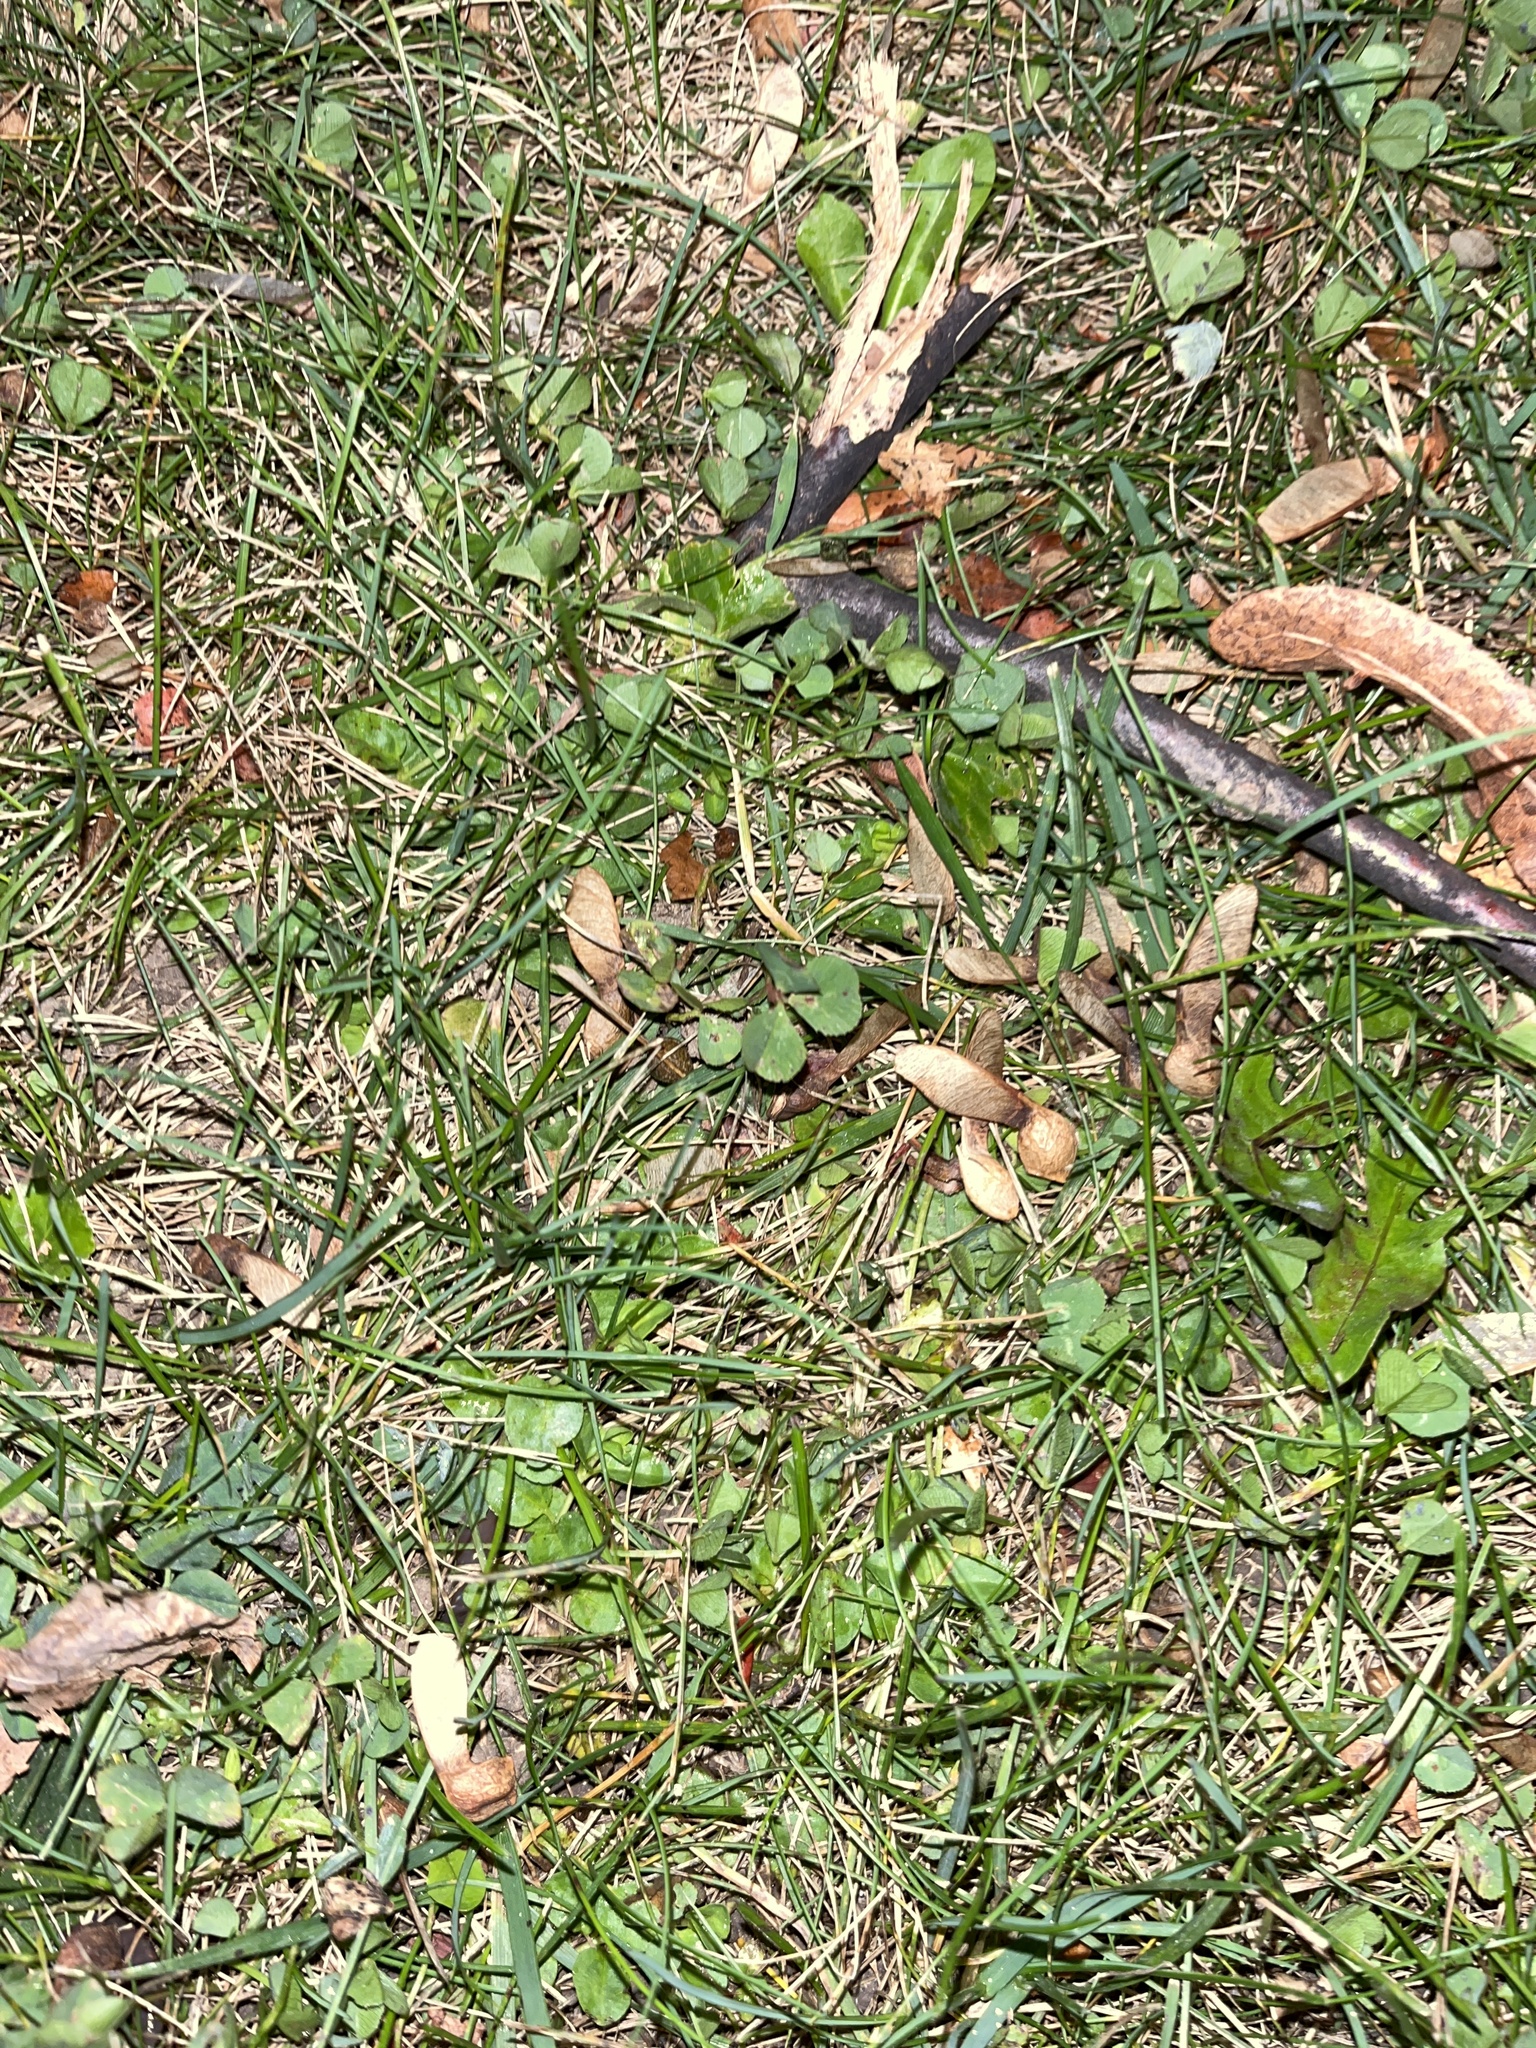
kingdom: Plantae
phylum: Tracheophyta
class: Magnoliopsida
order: Fabales
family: Fabaceae
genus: Trifolium
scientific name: Trifolium repens
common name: White clover
